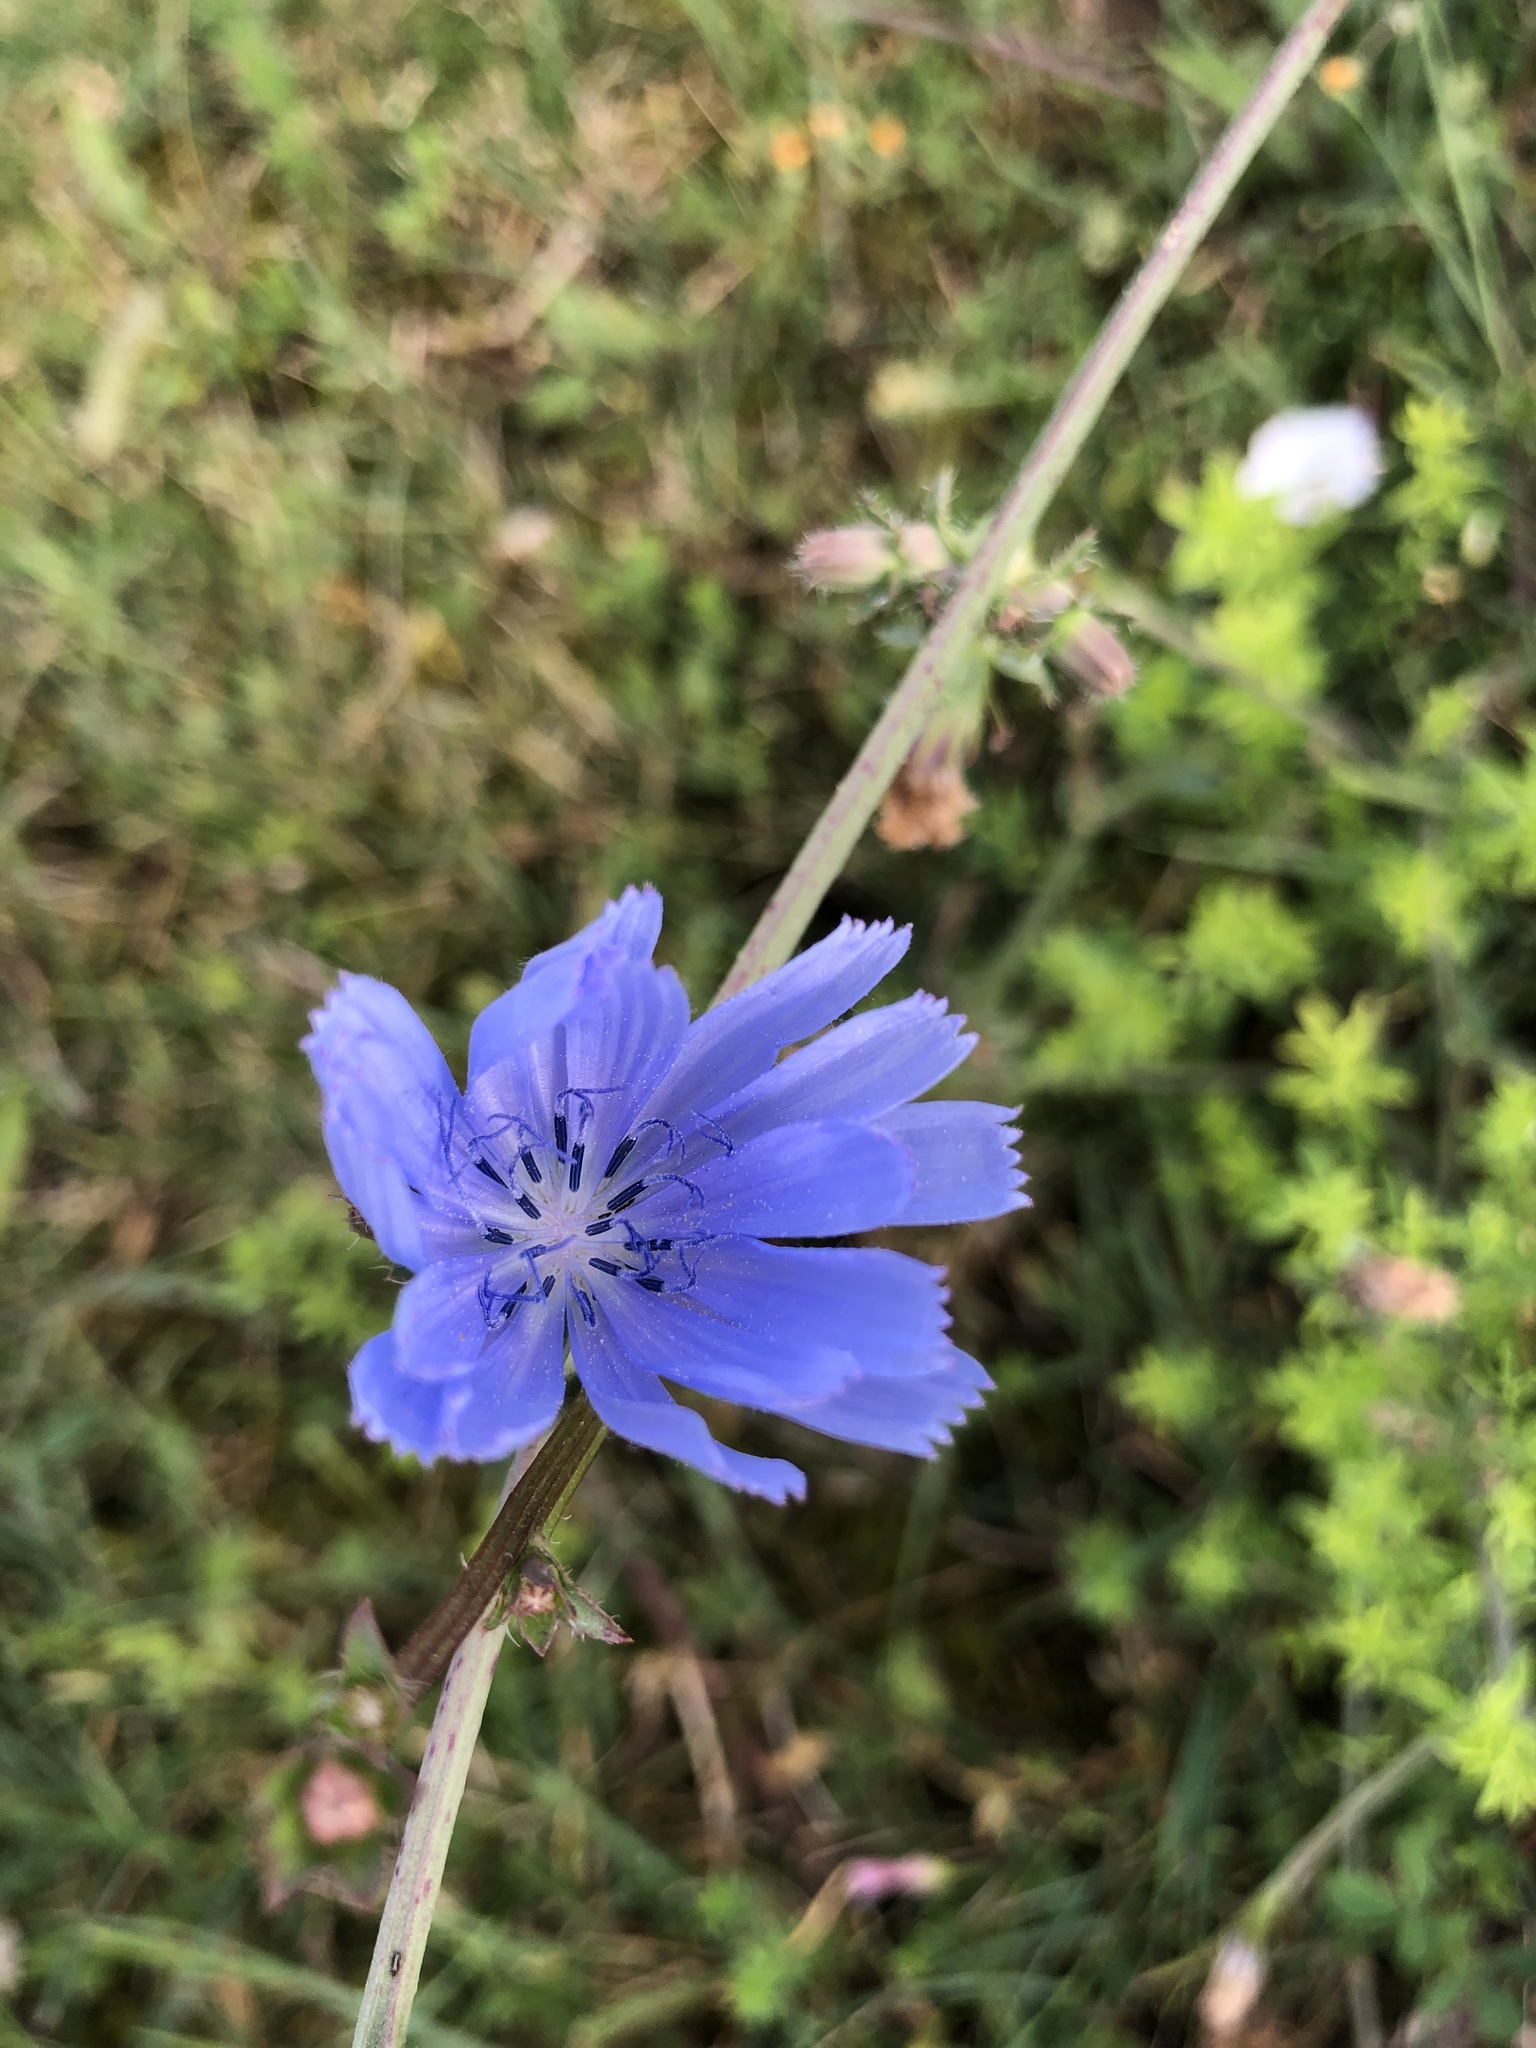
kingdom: Plantae
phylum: Tracheophyta
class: Magnoliopsida
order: Asterales
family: Asteraceae
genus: Cichorium
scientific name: Cichorium intybus
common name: Chicory
